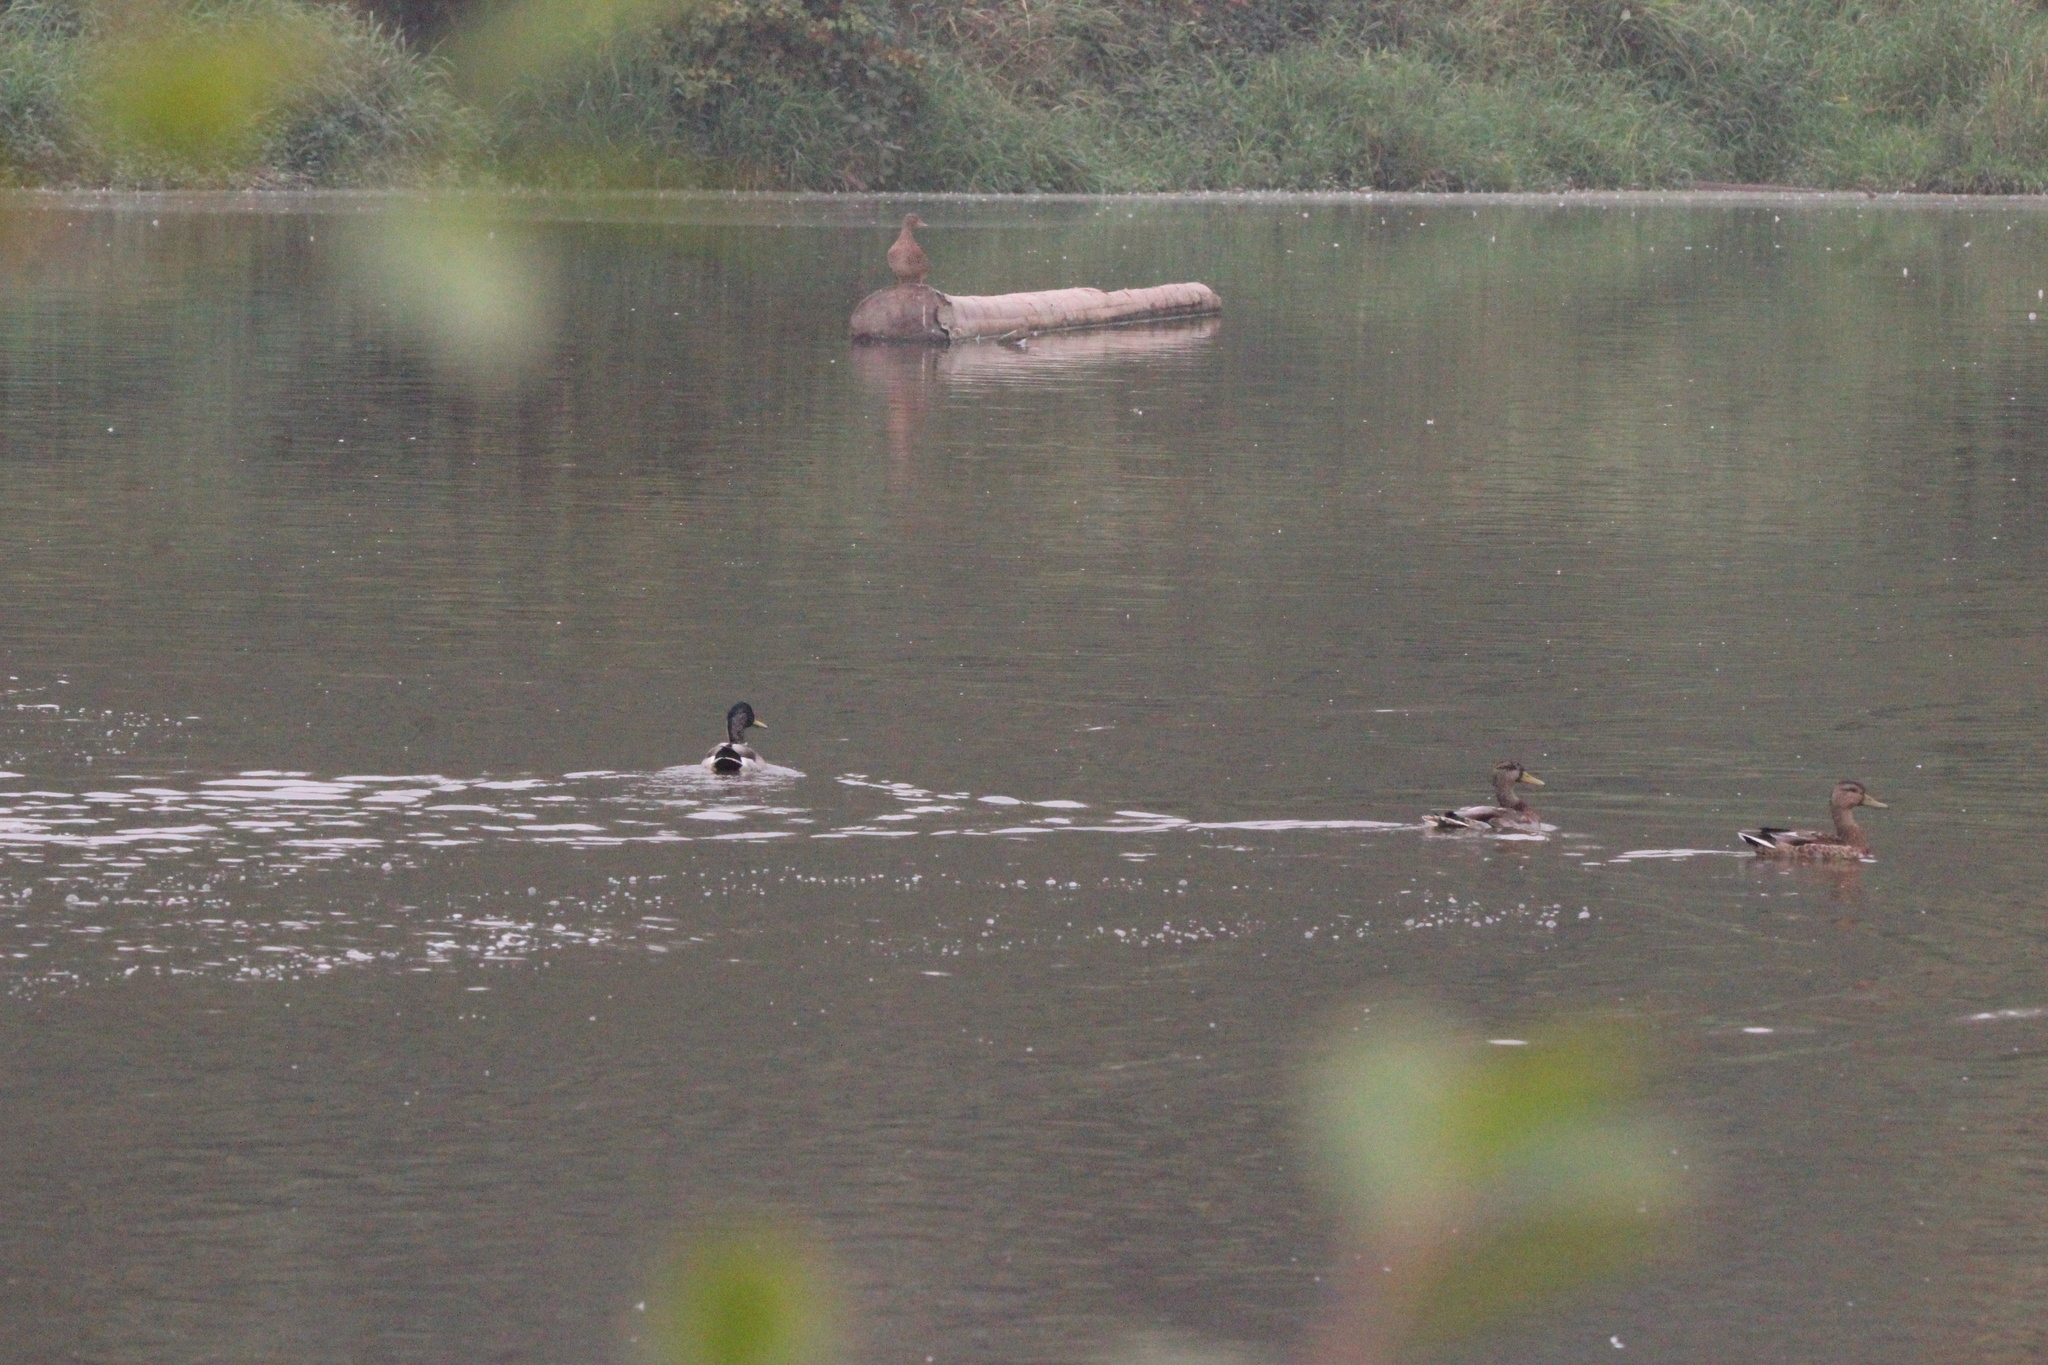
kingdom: Animalia
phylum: Chordata
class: Aves
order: Anseriformes
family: Anatidae
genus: Anas
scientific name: Anas platyrhynchos
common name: Mallard
